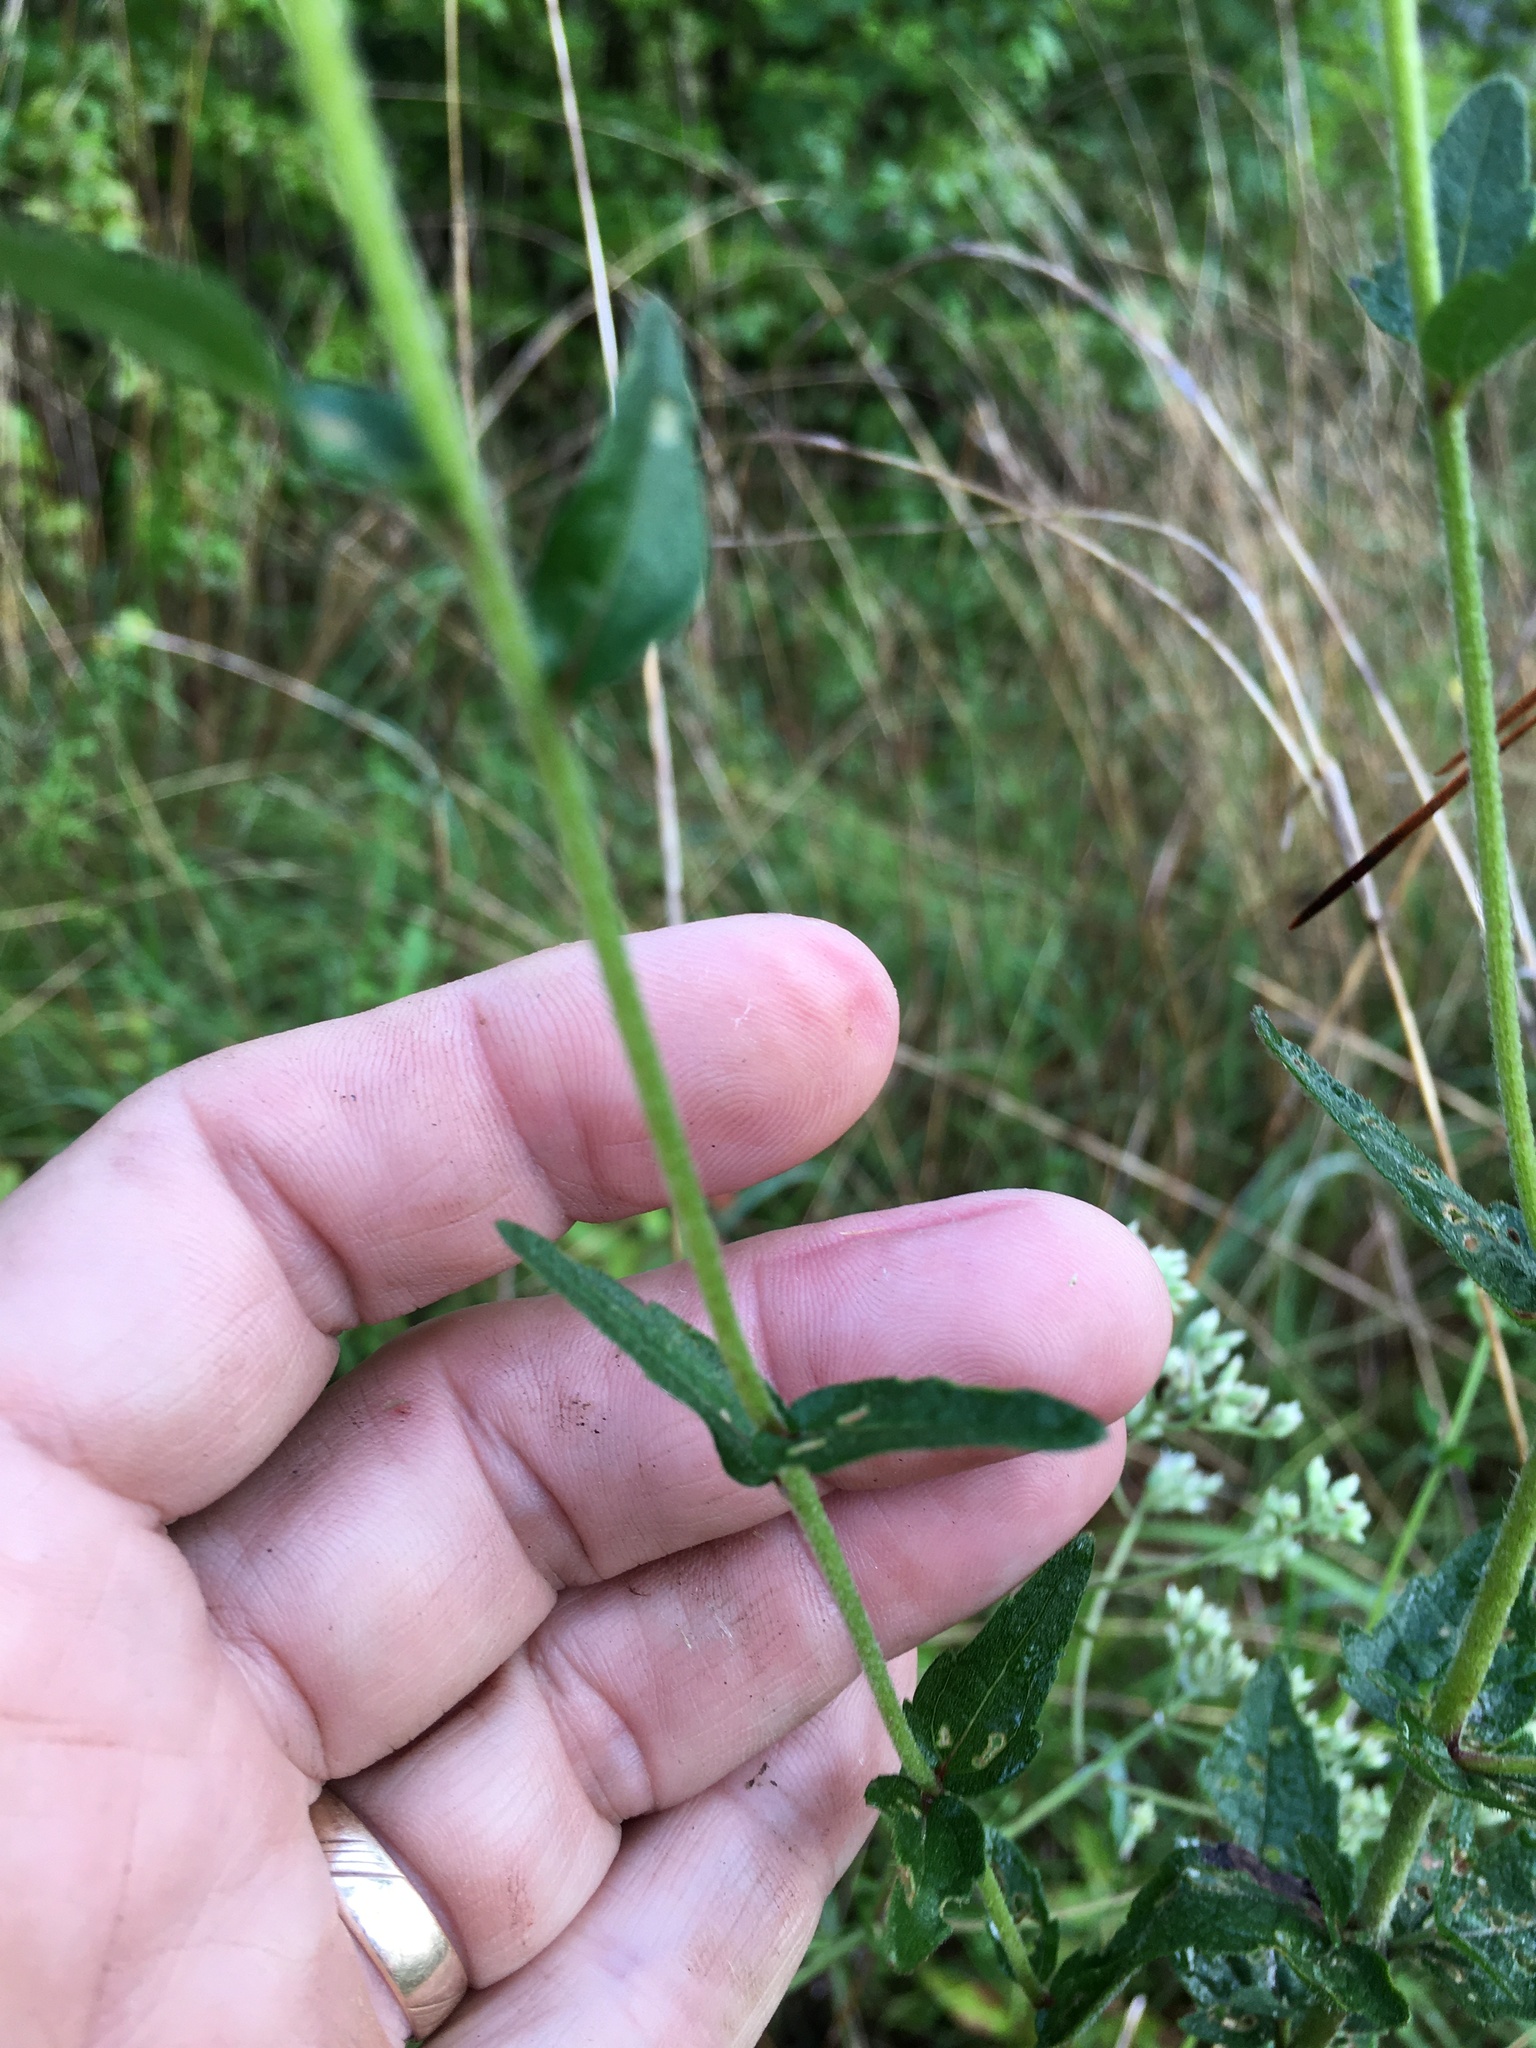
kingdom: Plantae
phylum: Tracheophyta
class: Magnoliopsida
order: Asterales
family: Asteraceae
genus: Eupatorium
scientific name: Eupatorium pilosum
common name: Rough boneset
